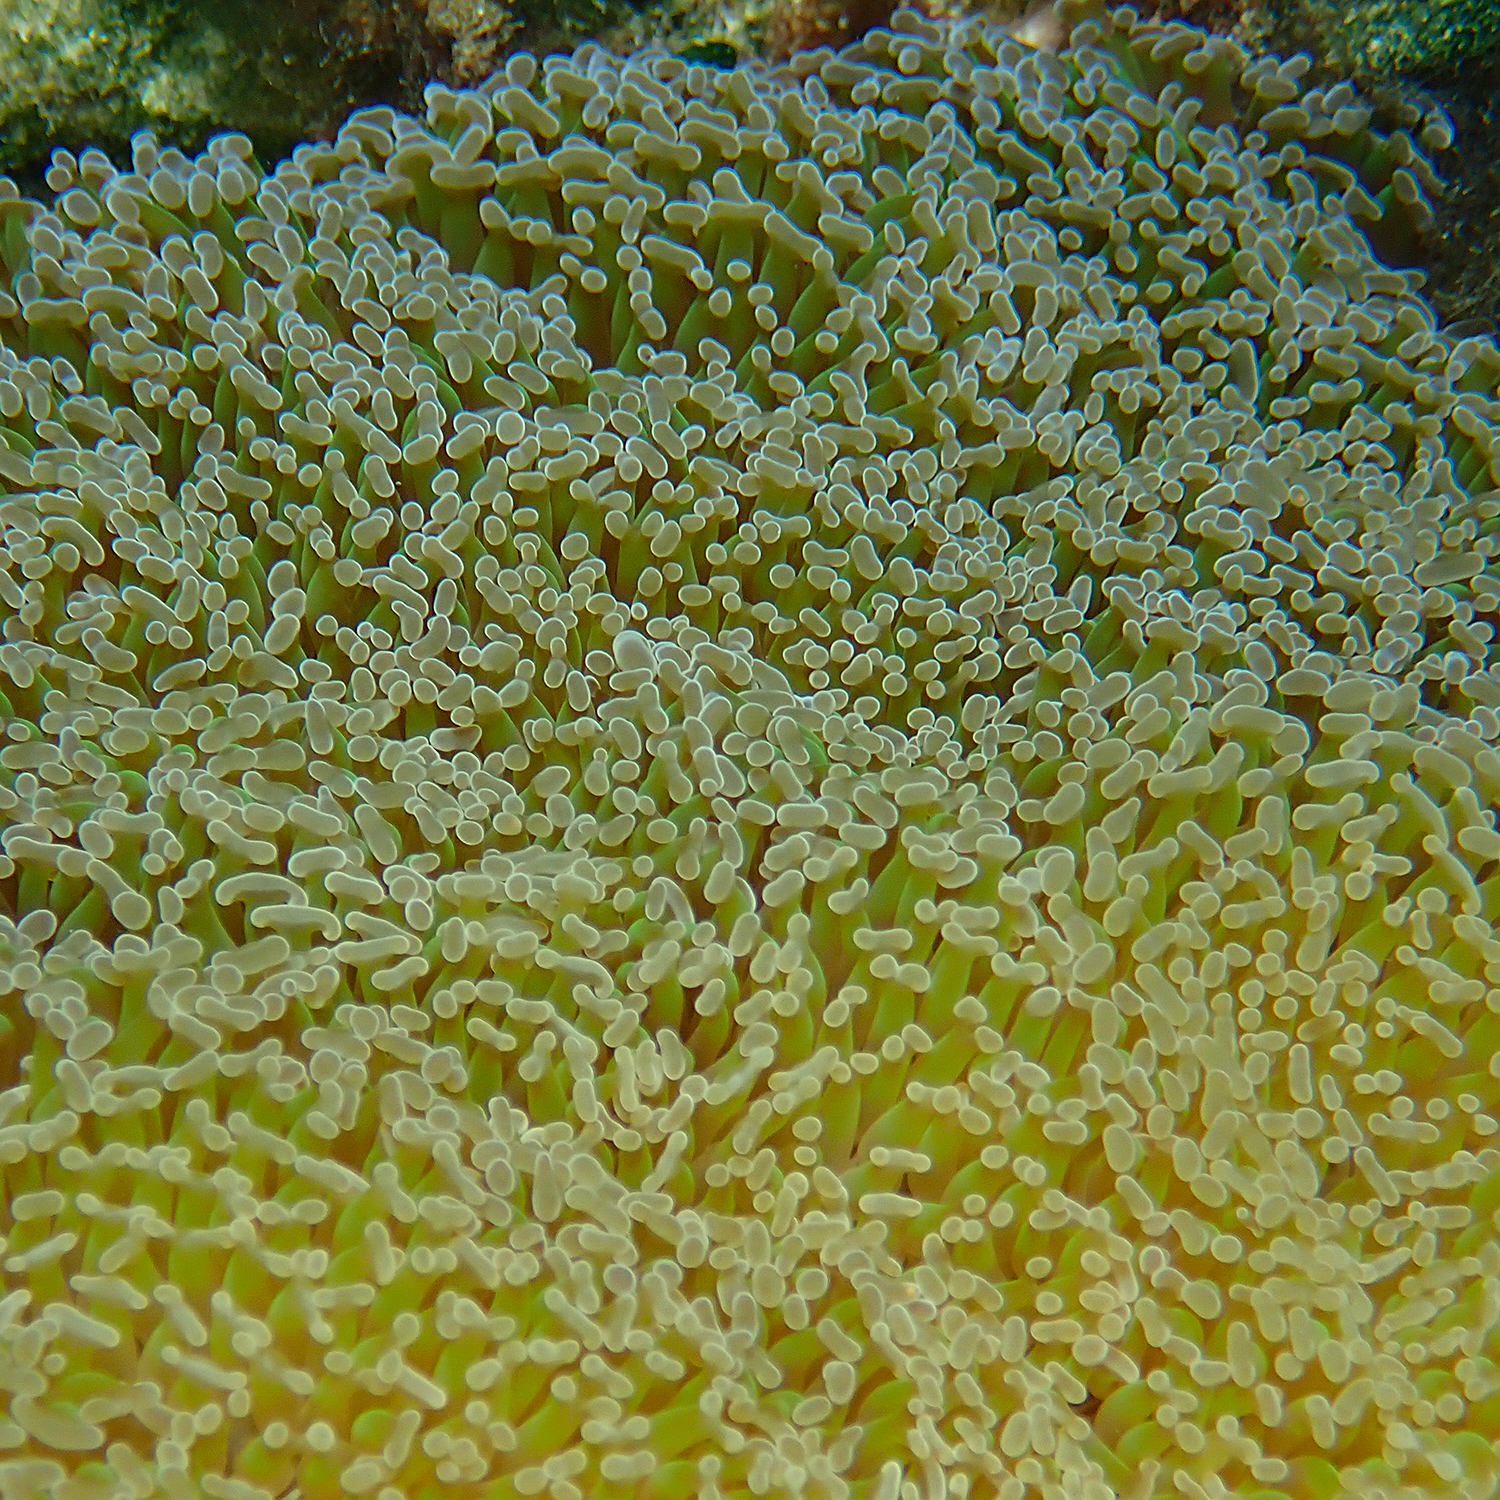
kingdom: Animalia
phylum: Cnidaria
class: Anthozoa
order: Scleractinia
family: Euphylliidae
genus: Fimbriaphyllia
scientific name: Fimbriaphyllia ancora
